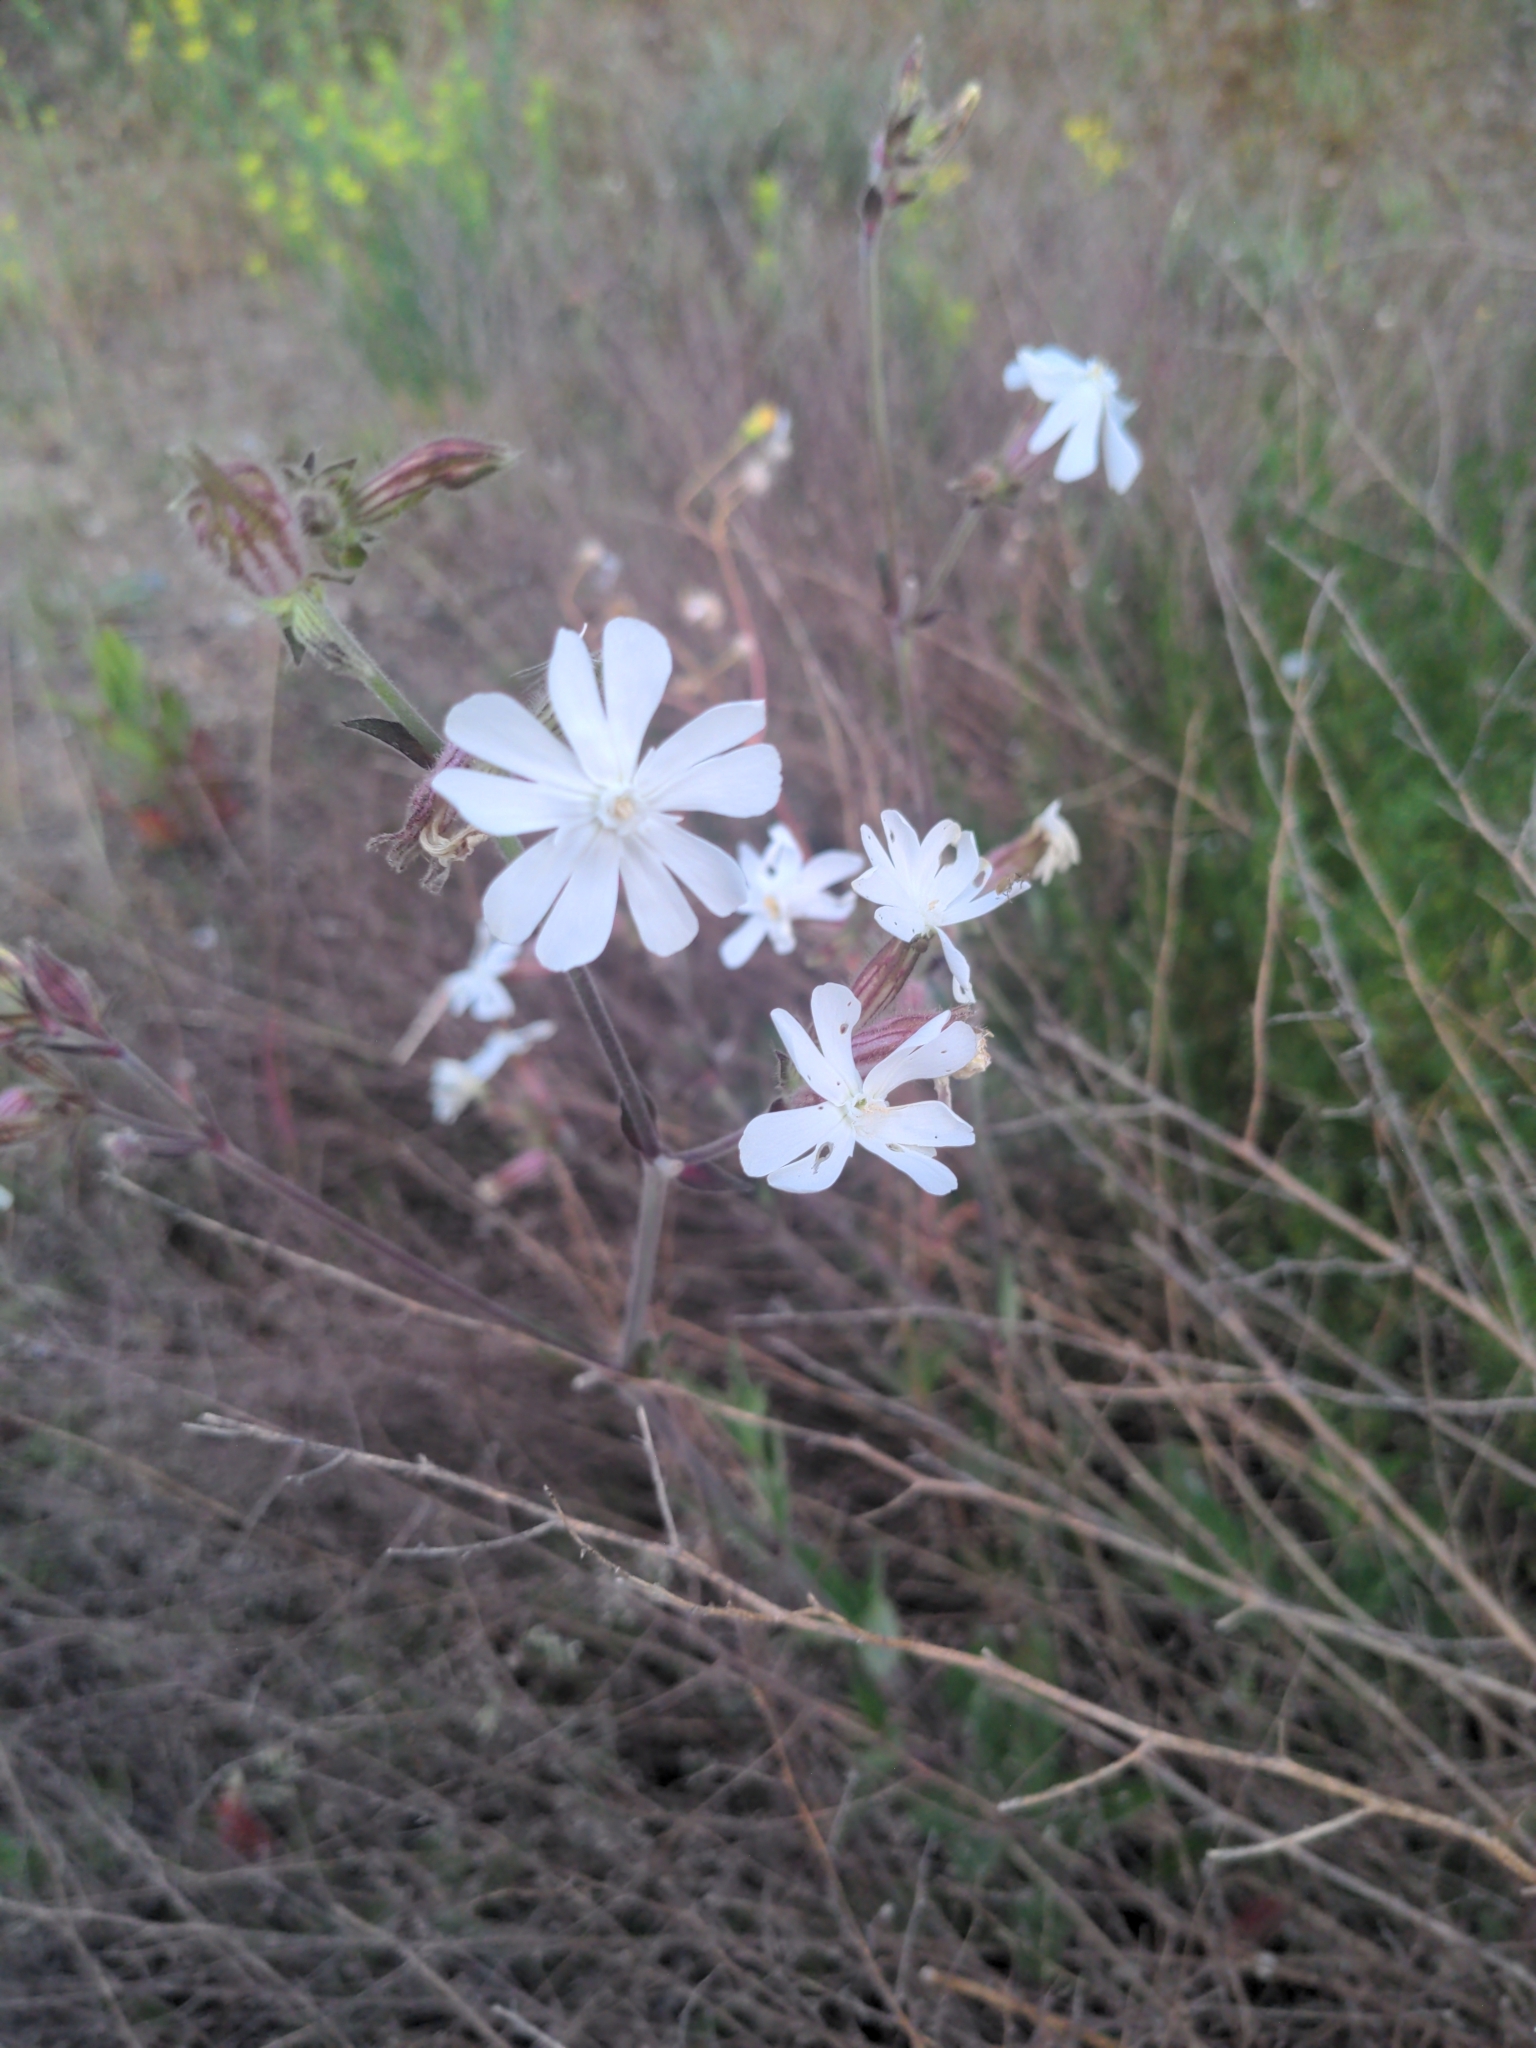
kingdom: Plantae
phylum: Tracheophyta
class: Magnoliopsida
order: Caryophyllales
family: Caryophyllaceae
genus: Silene
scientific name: Silene latifolia
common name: White campion
